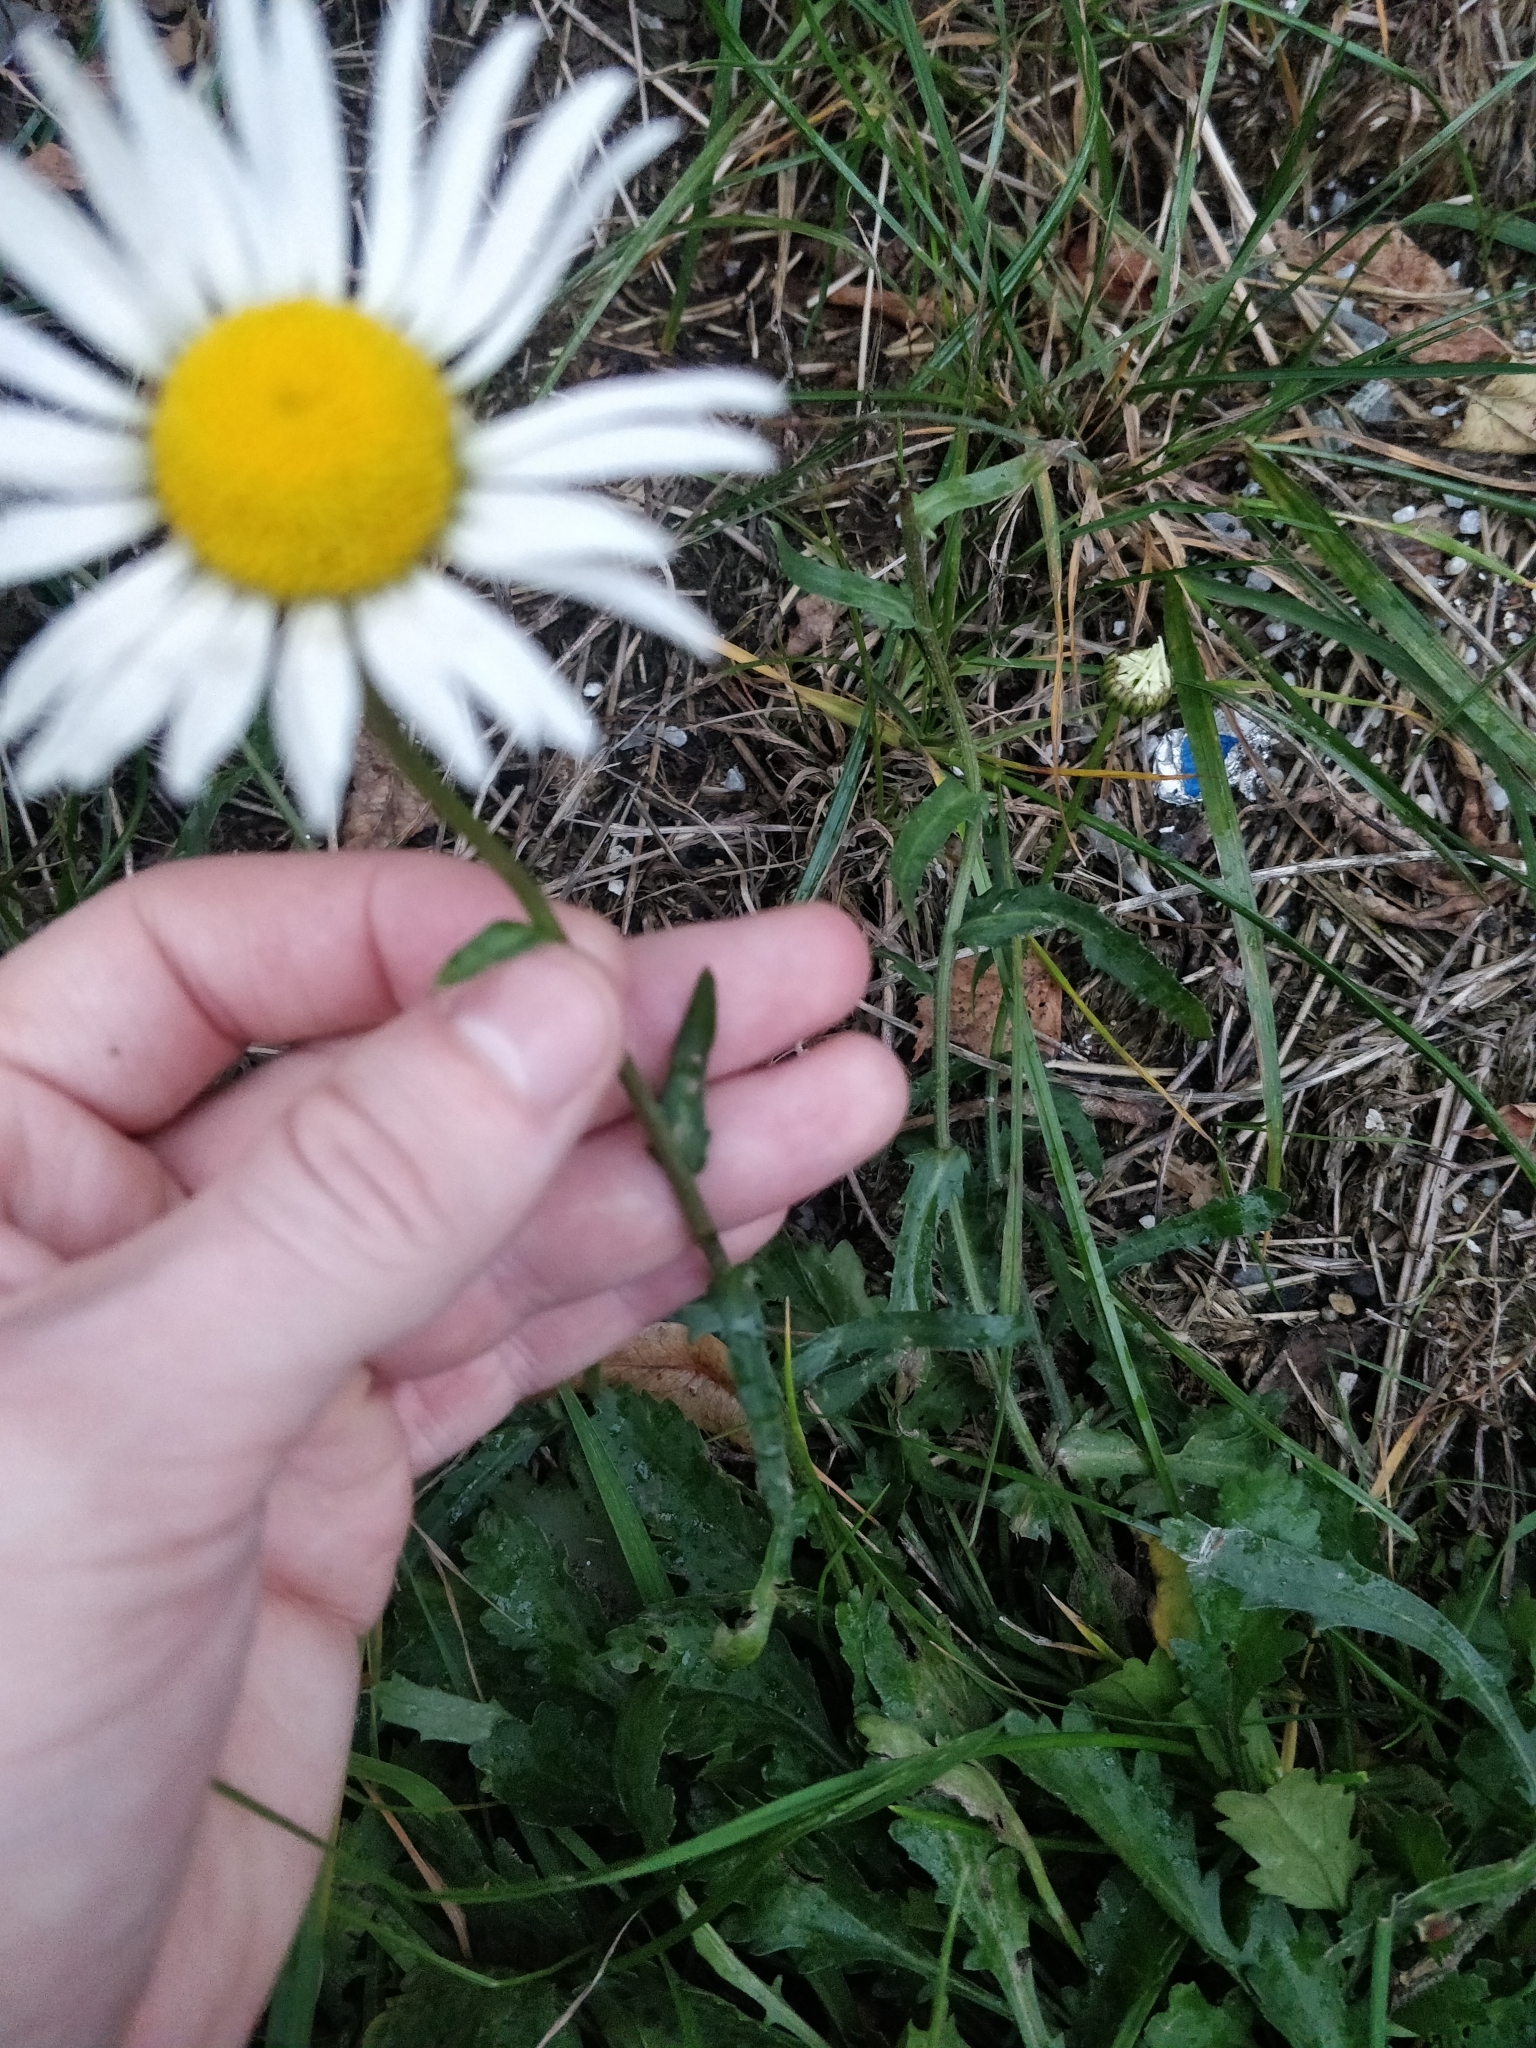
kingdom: Plantae
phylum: Tracheophyta
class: Magnoliopsida
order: Asterales
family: Asteraceae
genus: Leucanthemum
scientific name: Leucanthemum vulgare
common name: Oxeye daisy
